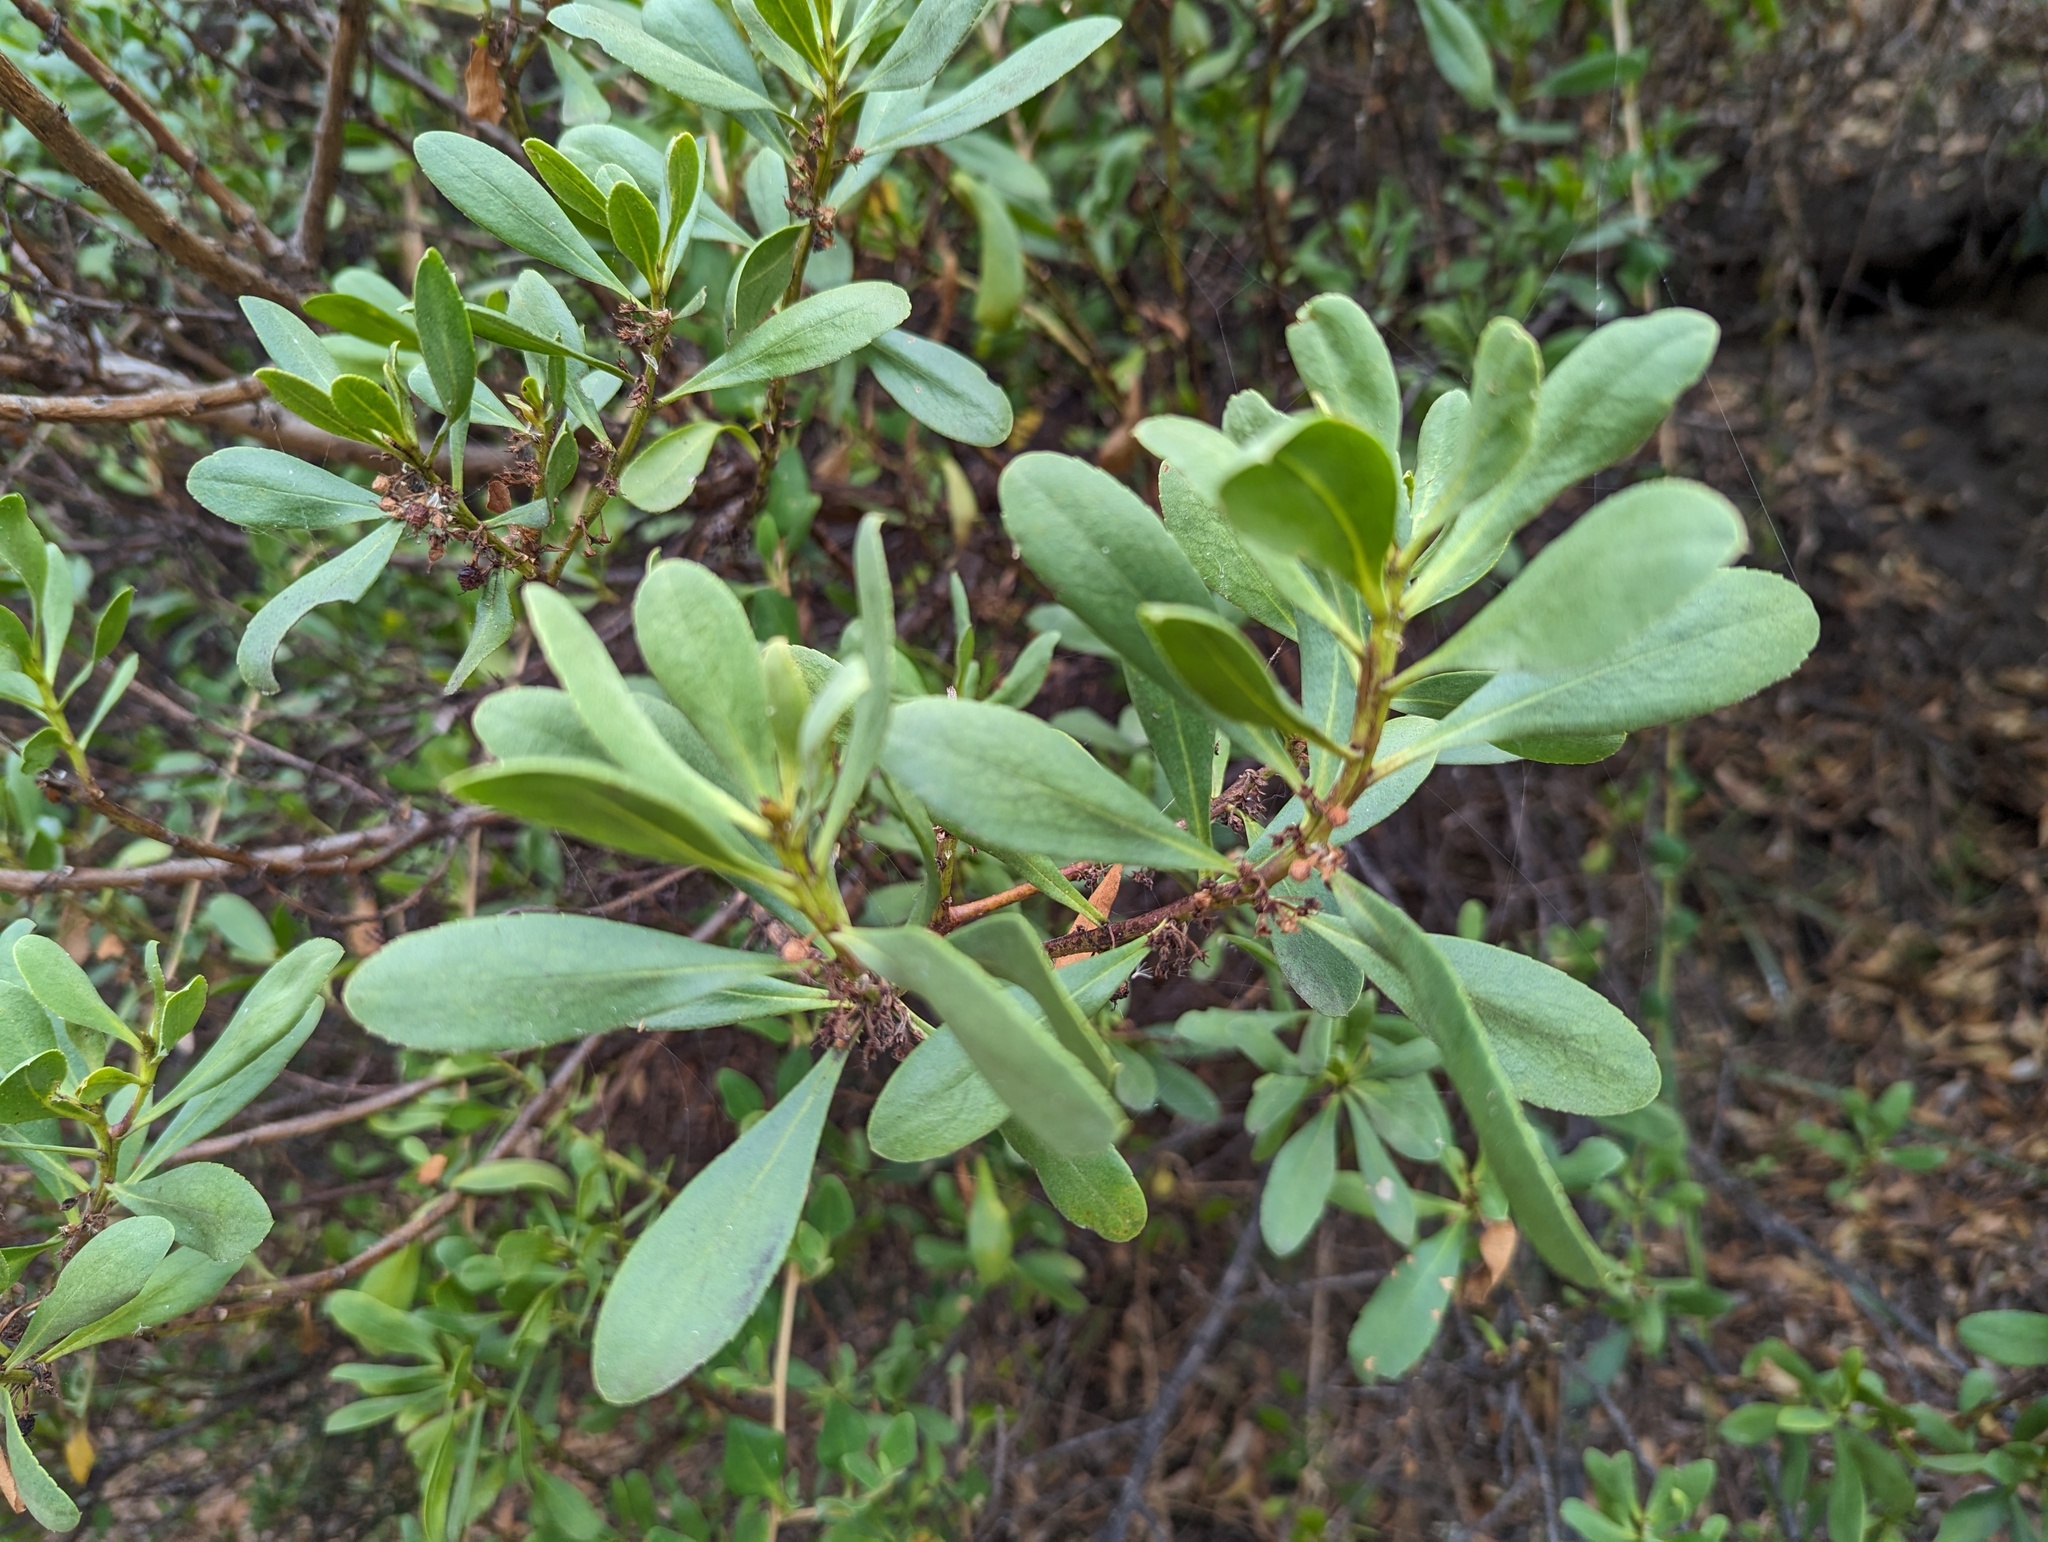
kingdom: Plantae
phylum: Tracheophyta
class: Magnoliopsida
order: Lamiales
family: Scrophulariaceae
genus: Myoporum
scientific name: Myoporum insulare
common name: Common boobialla
